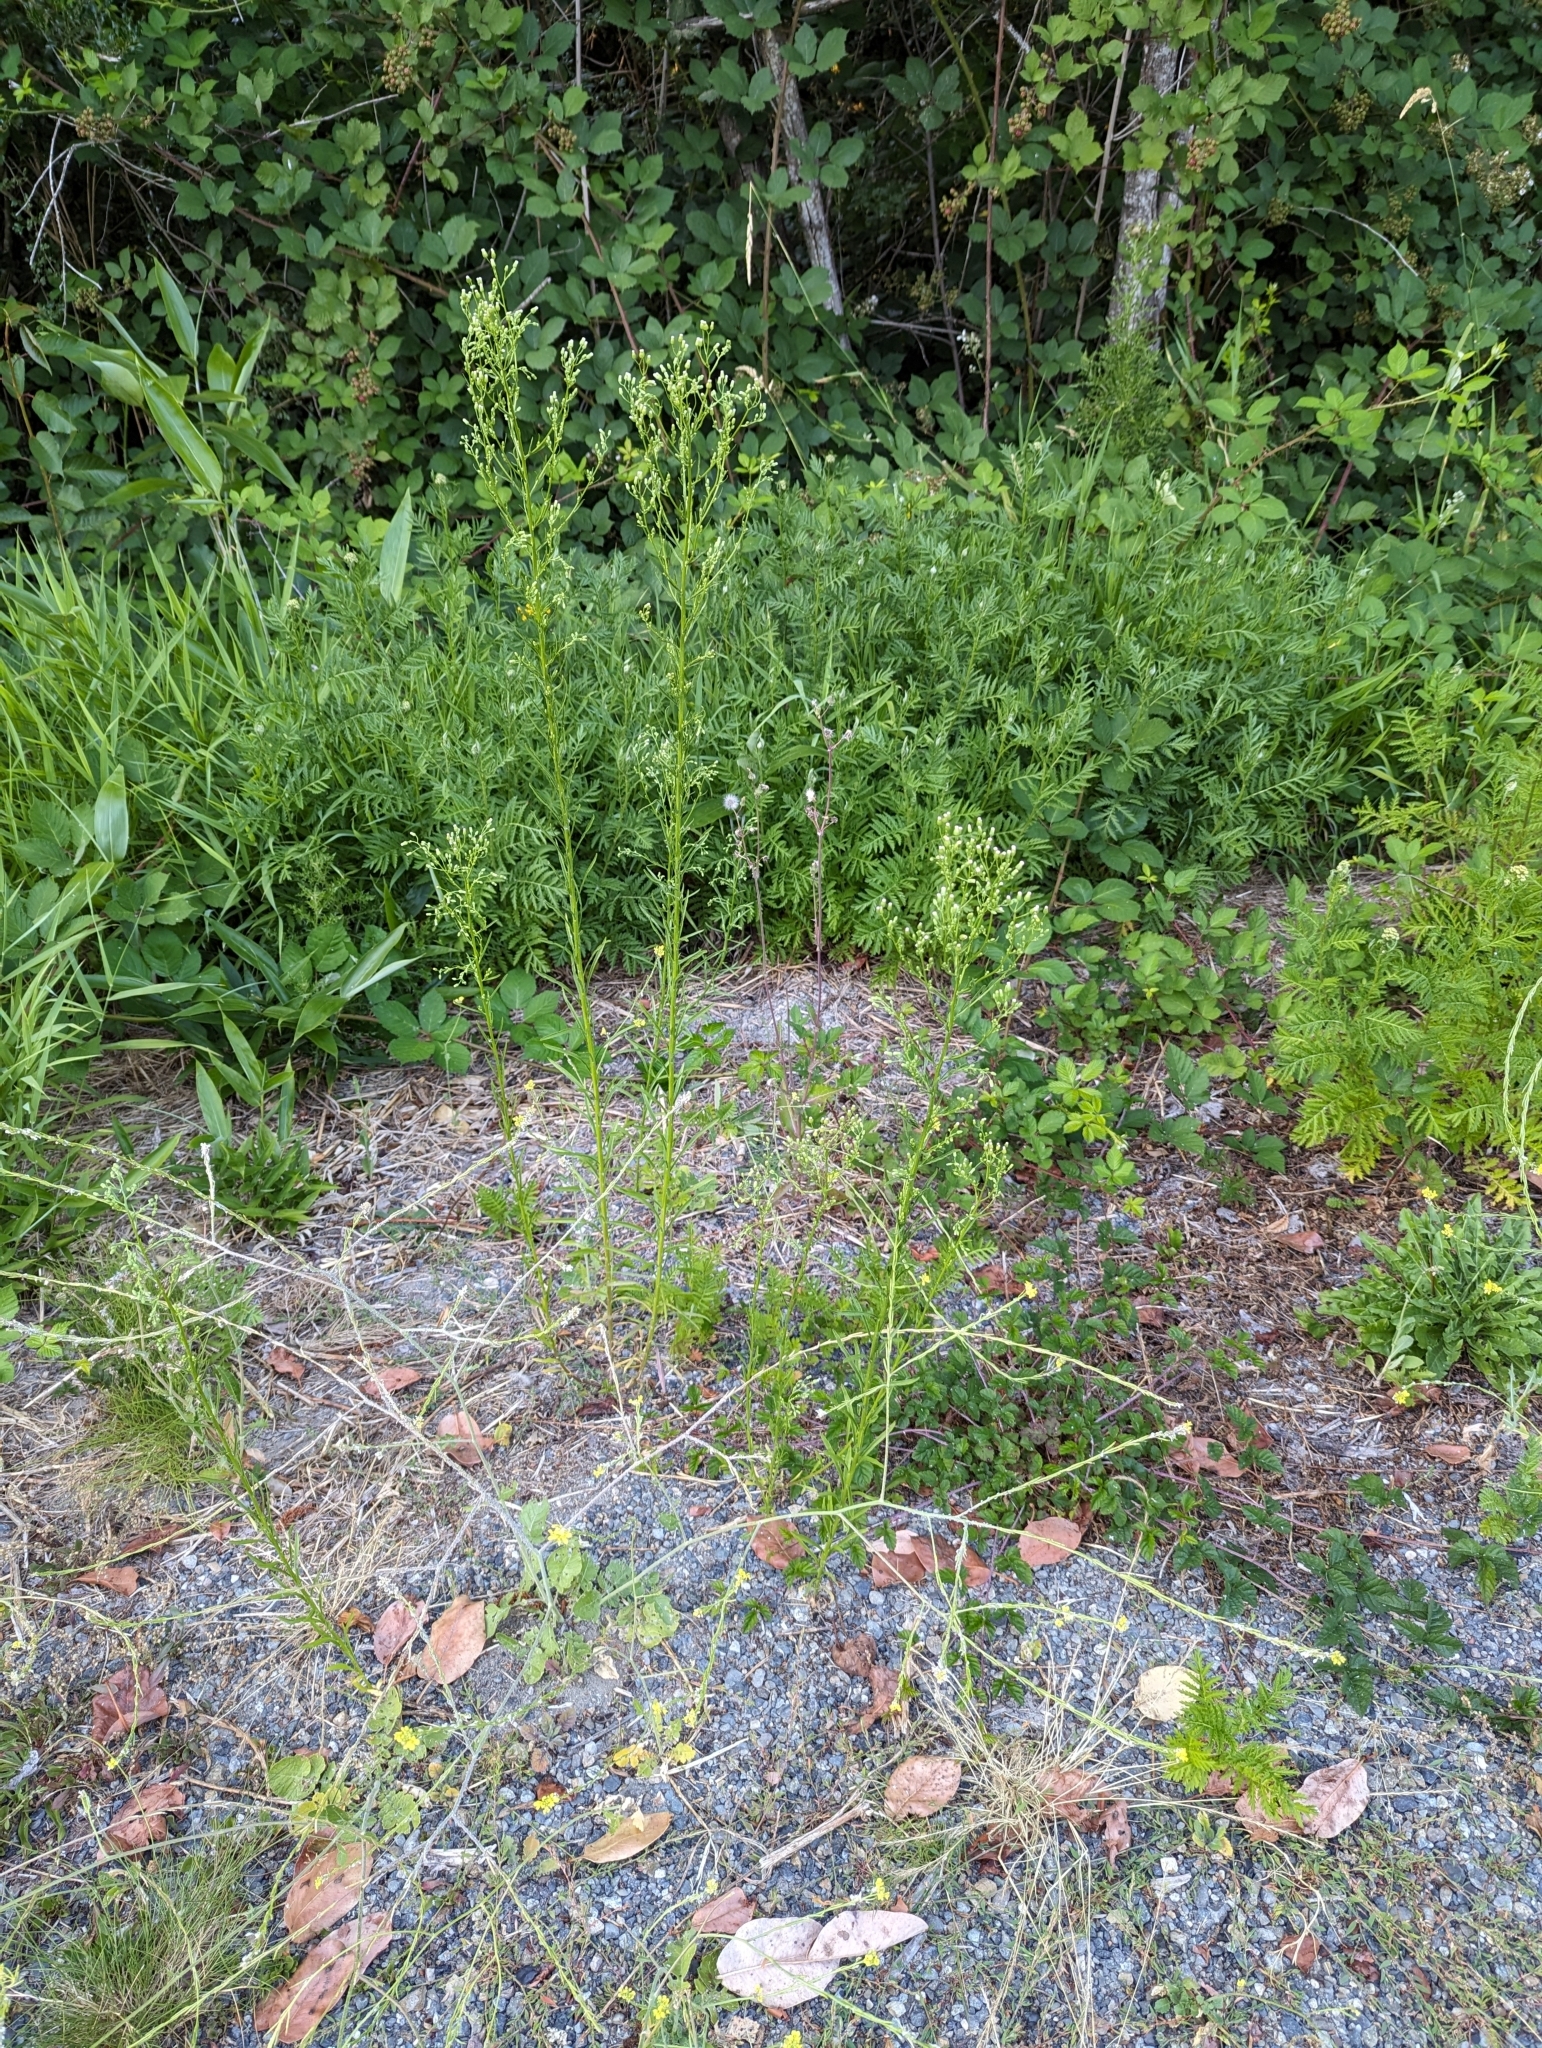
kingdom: Plantae
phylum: Tracheophyta
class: Magnoliopsida
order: Asterales
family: Asteraceae
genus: Erigeron
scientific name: Erigeron canadensis
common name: Canadian fleabane
